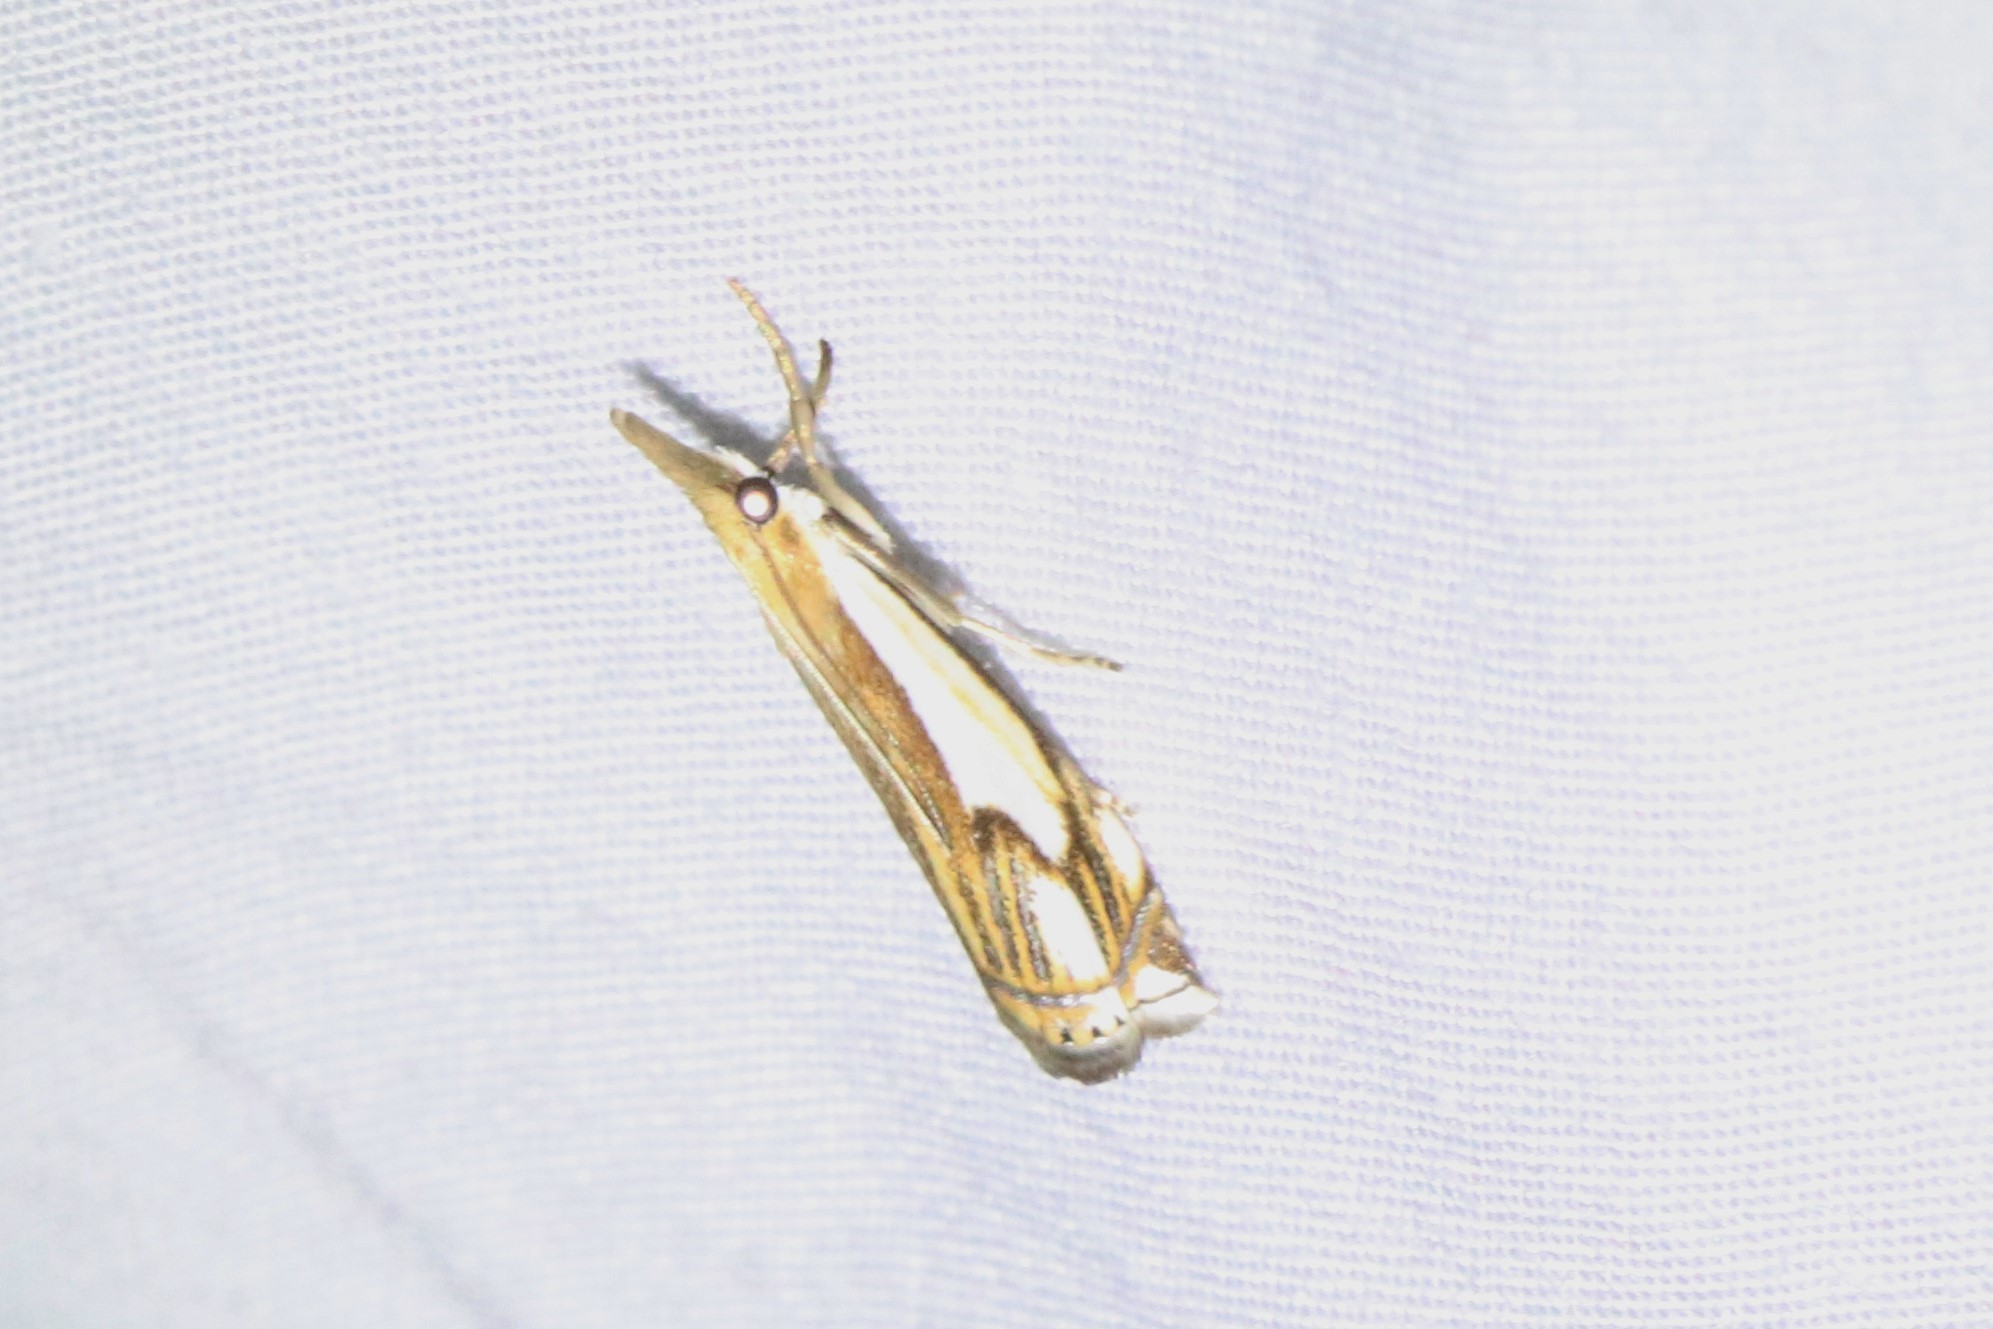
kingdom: Animalia
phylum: Arthropoda
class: Insecta
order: Lepidoptera
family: Crambidae
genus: Crambus
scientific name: Crambus agitatellus
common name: Double-banded grass-veneer
